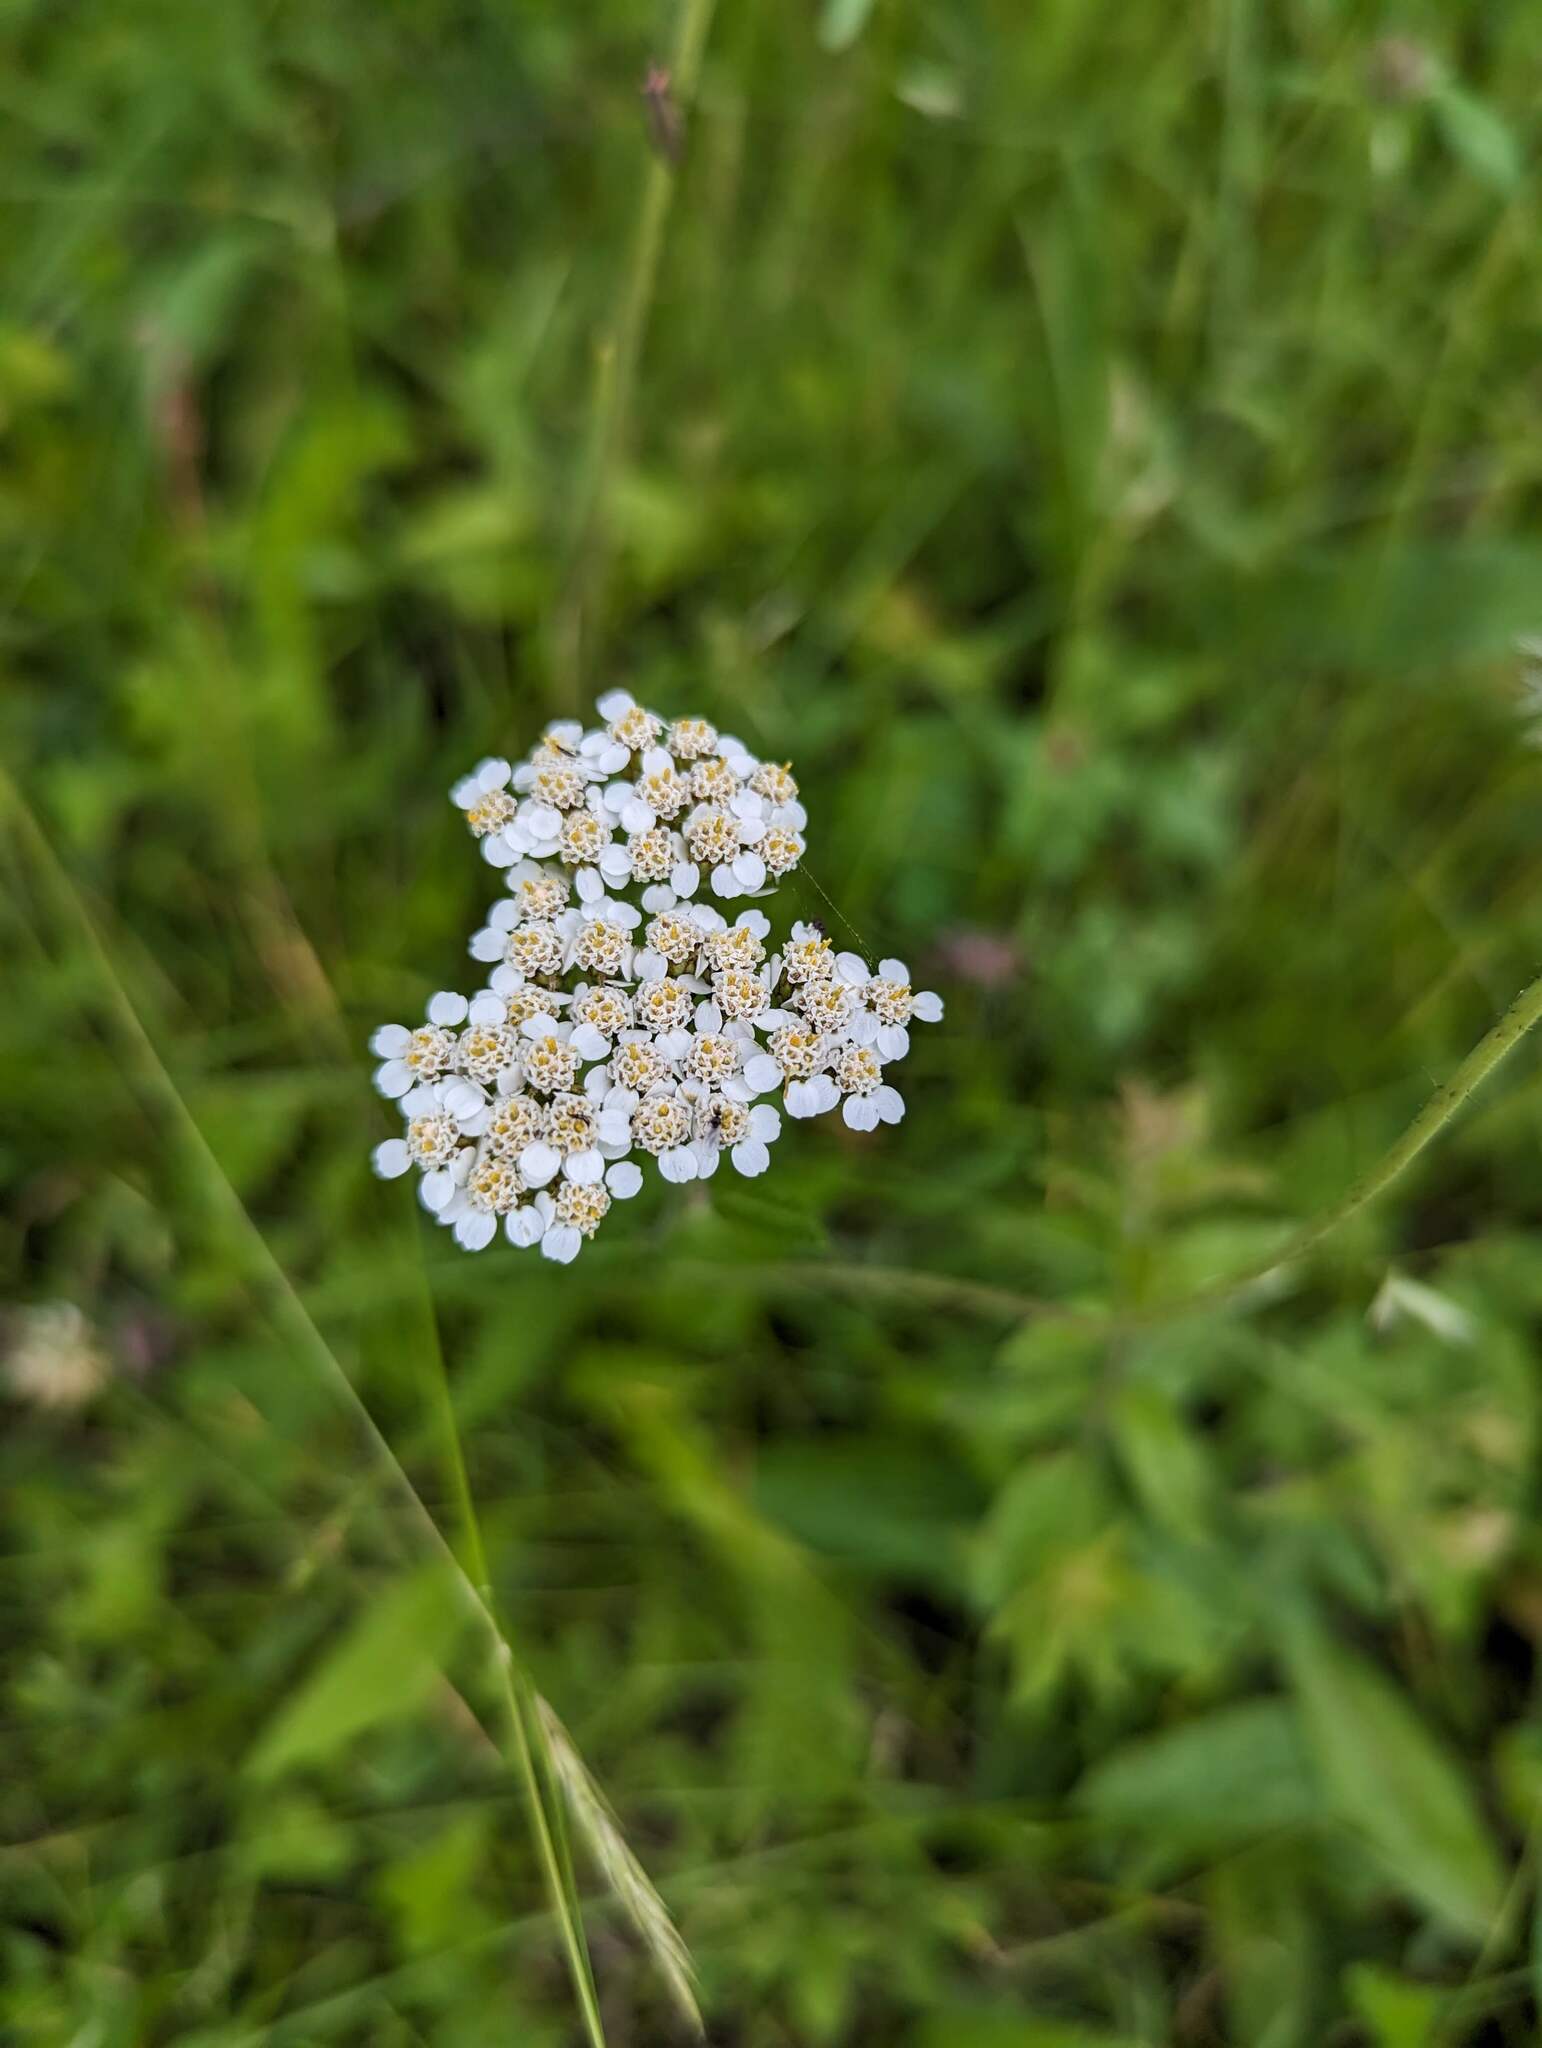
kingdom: Plantae
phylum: Tracheophyta
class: Magnoliopsida
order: Asterales
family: Asteraceae
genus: Achillea
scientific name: Achillea millefolium
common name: Yarrow
